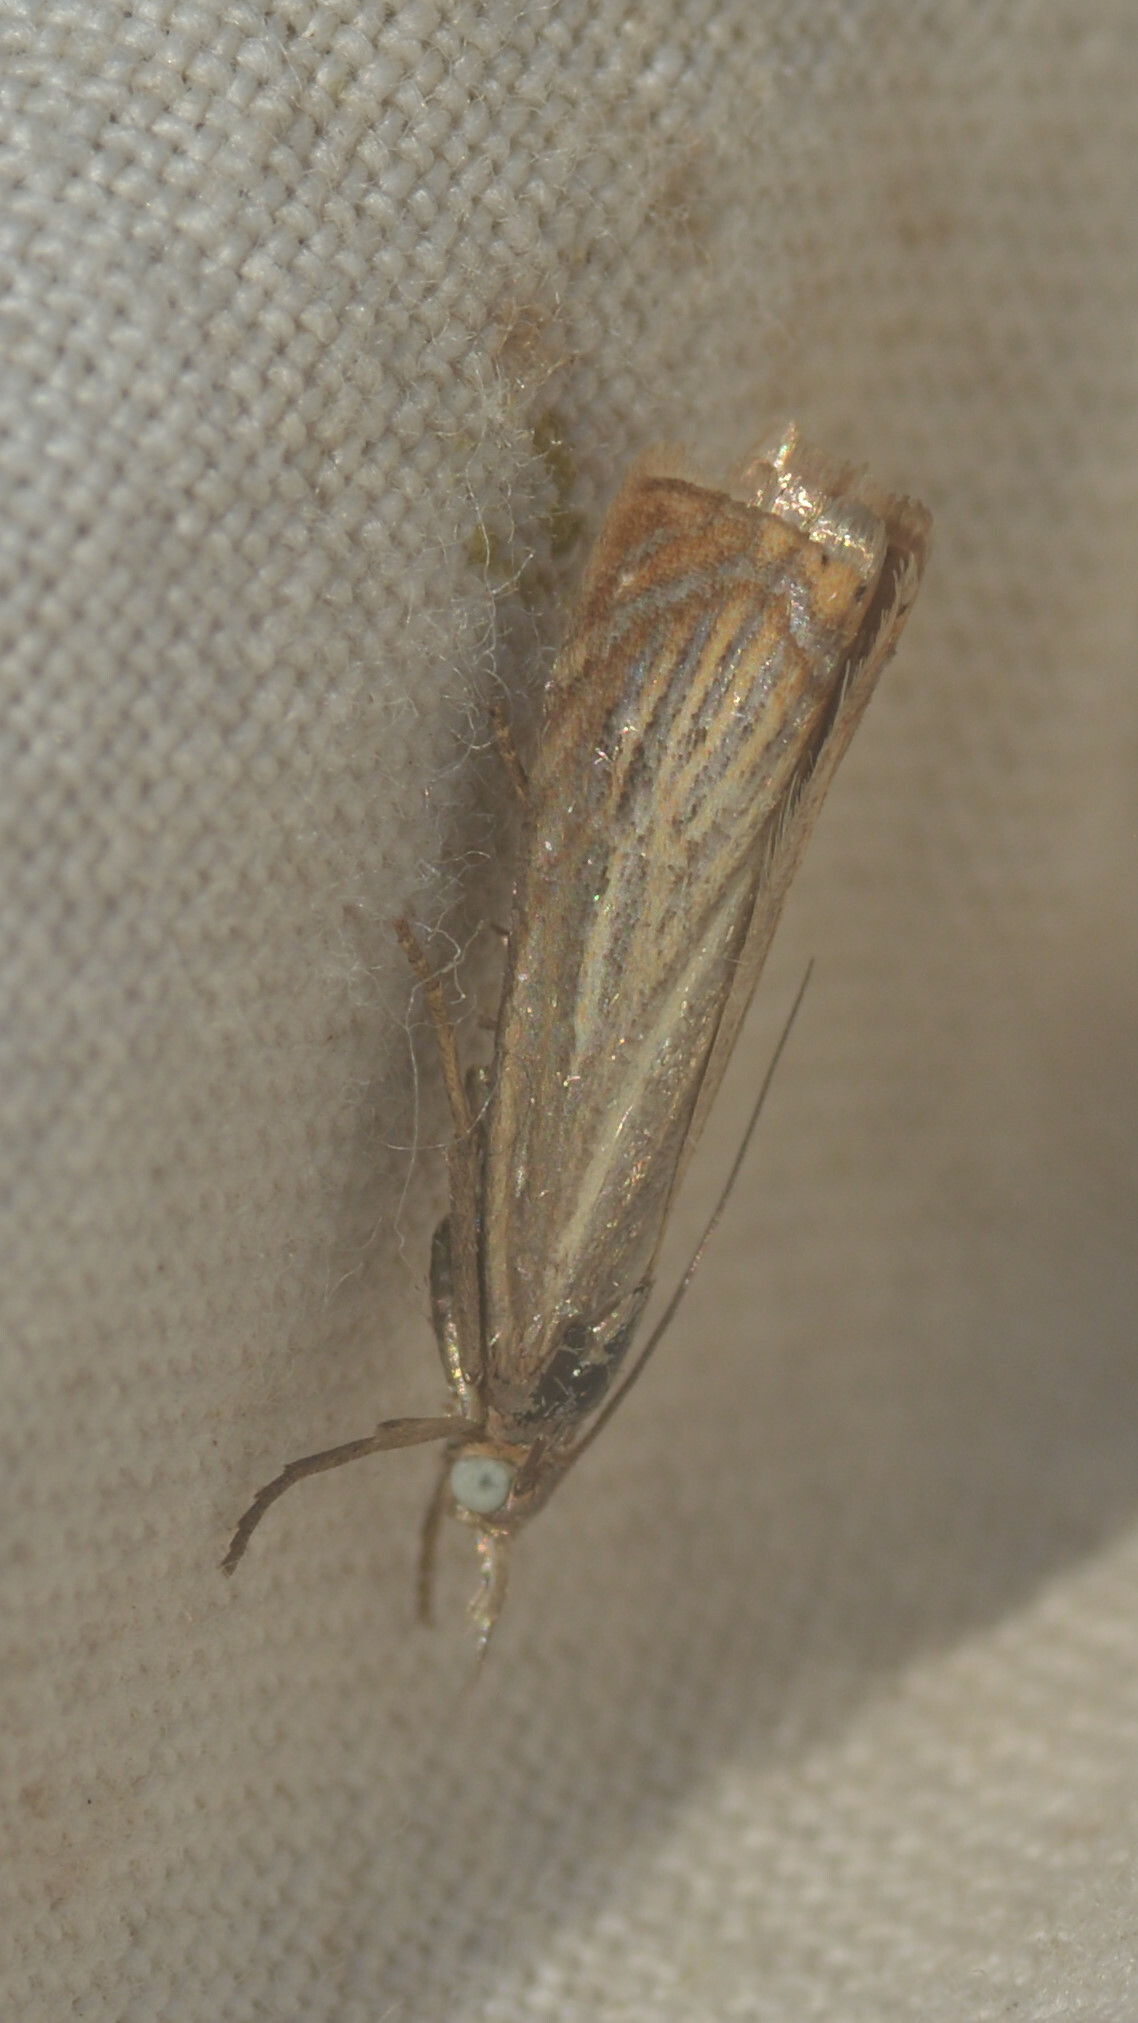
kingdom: Animalia
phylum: Arthropoda
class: Insecta
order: Lepidoptera
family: Crambidae
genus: Chrysoteuchia
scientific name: Chrysoteuchia culmella
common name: Garden grass-veneer
